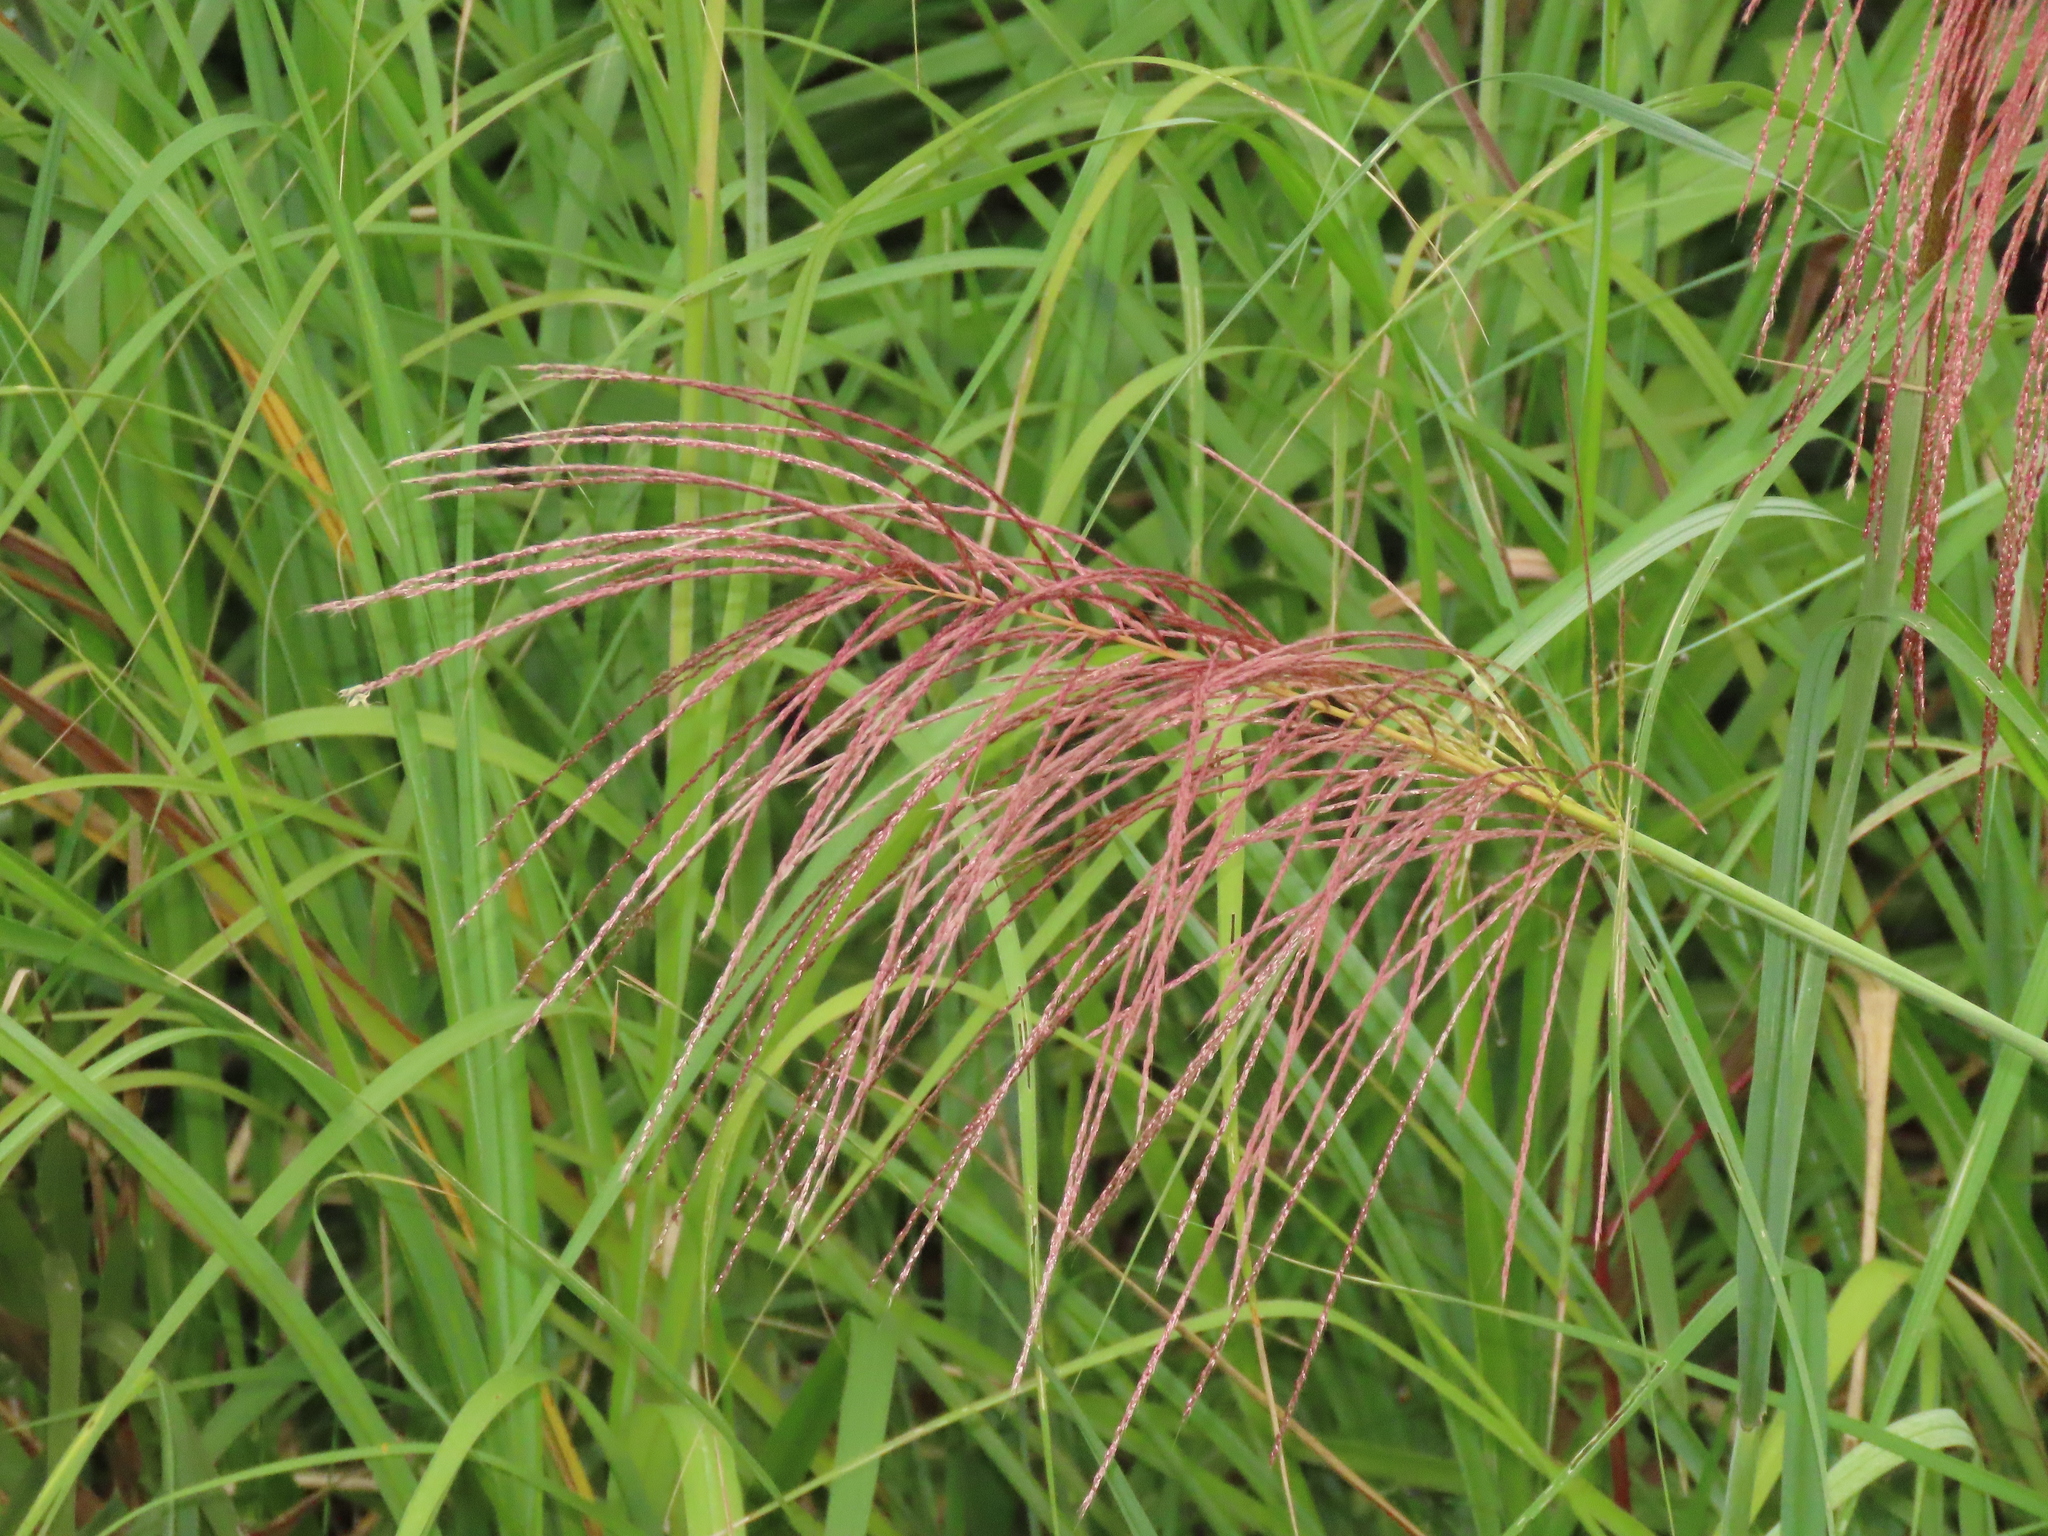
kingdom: Plantae
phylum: Tracheophyta
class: Liliopsida
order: Poales
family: Poaceae
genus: Miscanthus
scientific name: Miscanthus sinensis
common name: Chinese silvergrass
